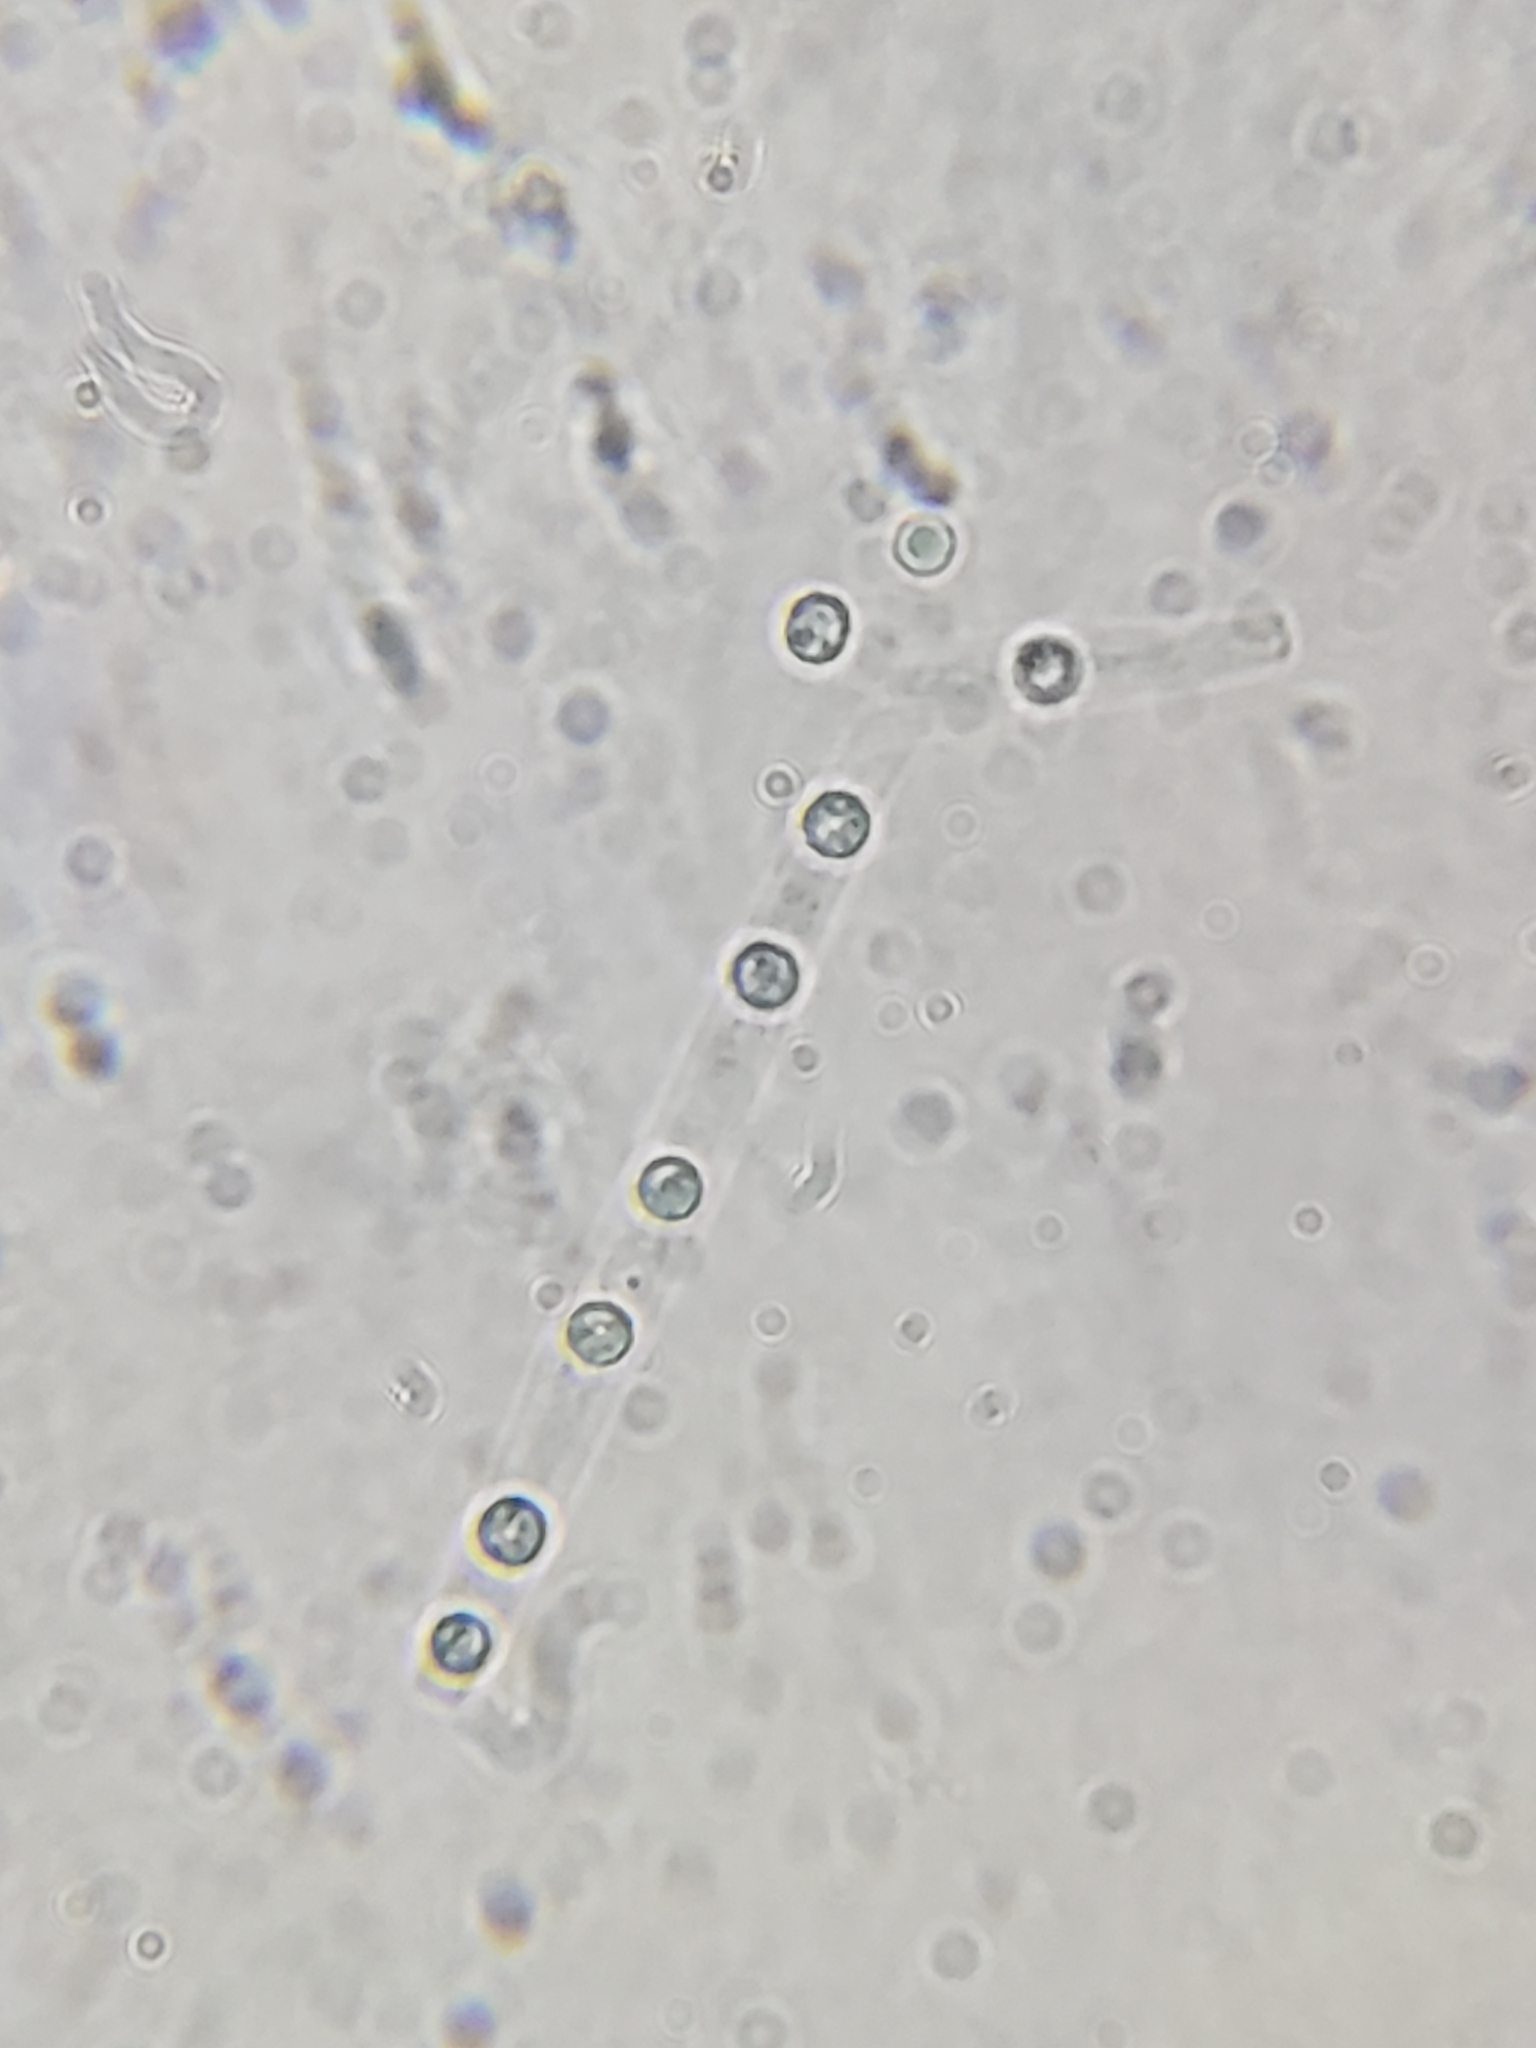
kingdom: Fungi
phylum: Ascomycota
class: Sordariomycetes
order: Hypocreales
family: Hypocreaceae
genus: Trichoderma
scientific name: Trichoderma lixii
